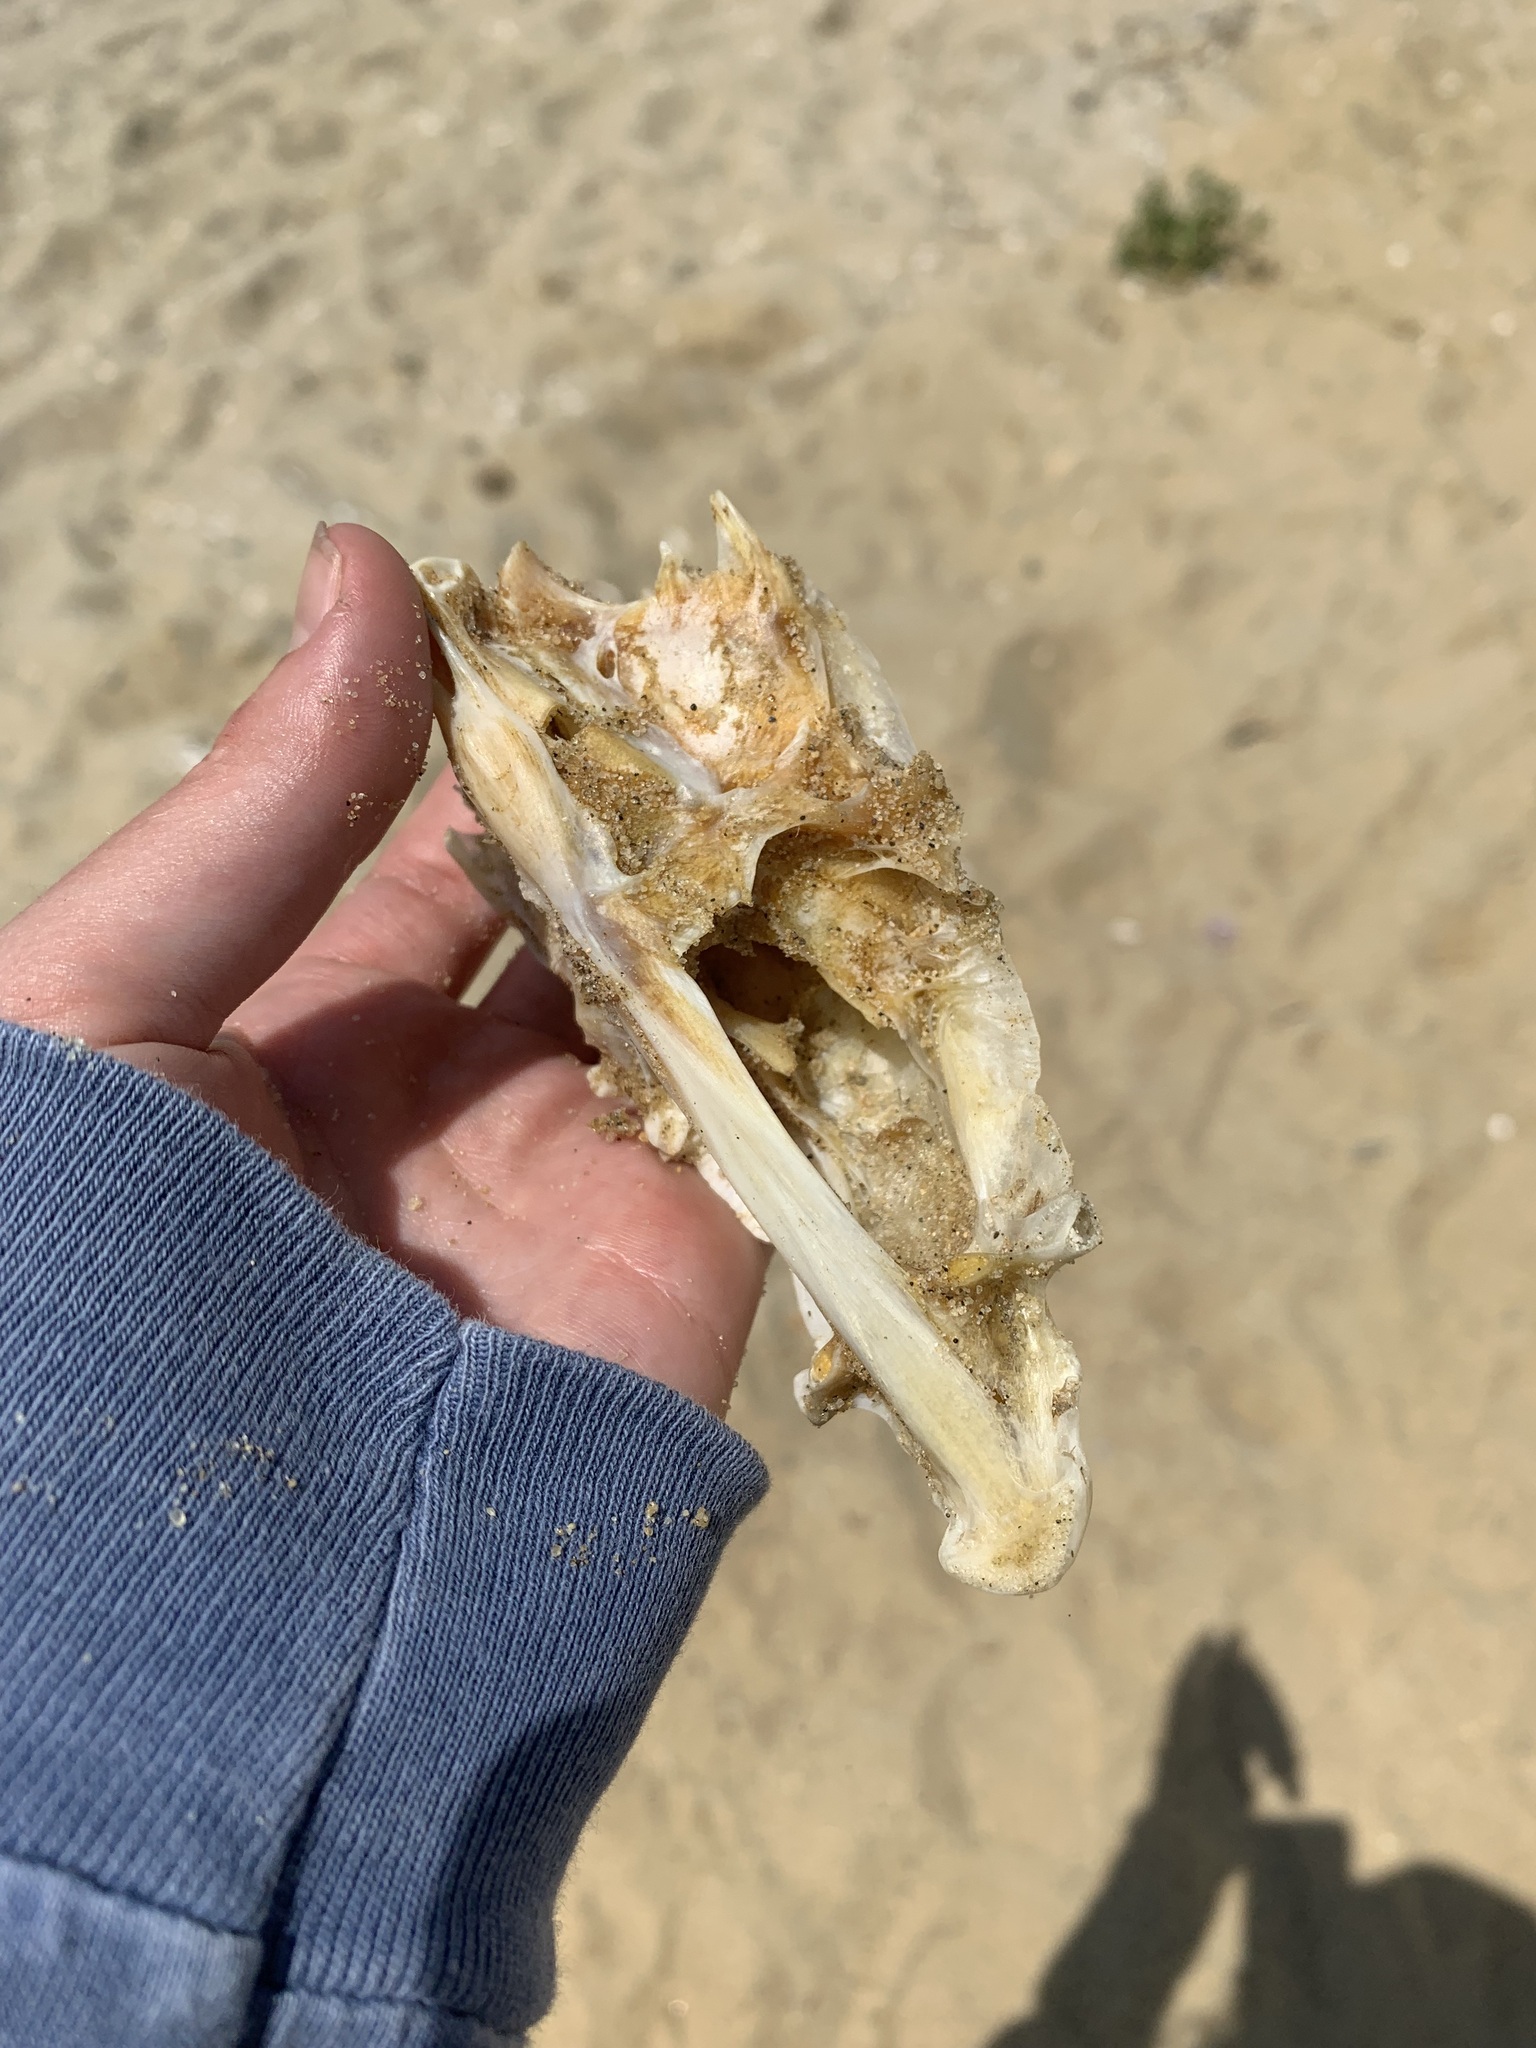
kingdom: Animalia
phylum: Chordata
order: Perciformes
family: Moronidae
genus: Morone
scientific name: Morone saxatilis
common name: Striped bass
